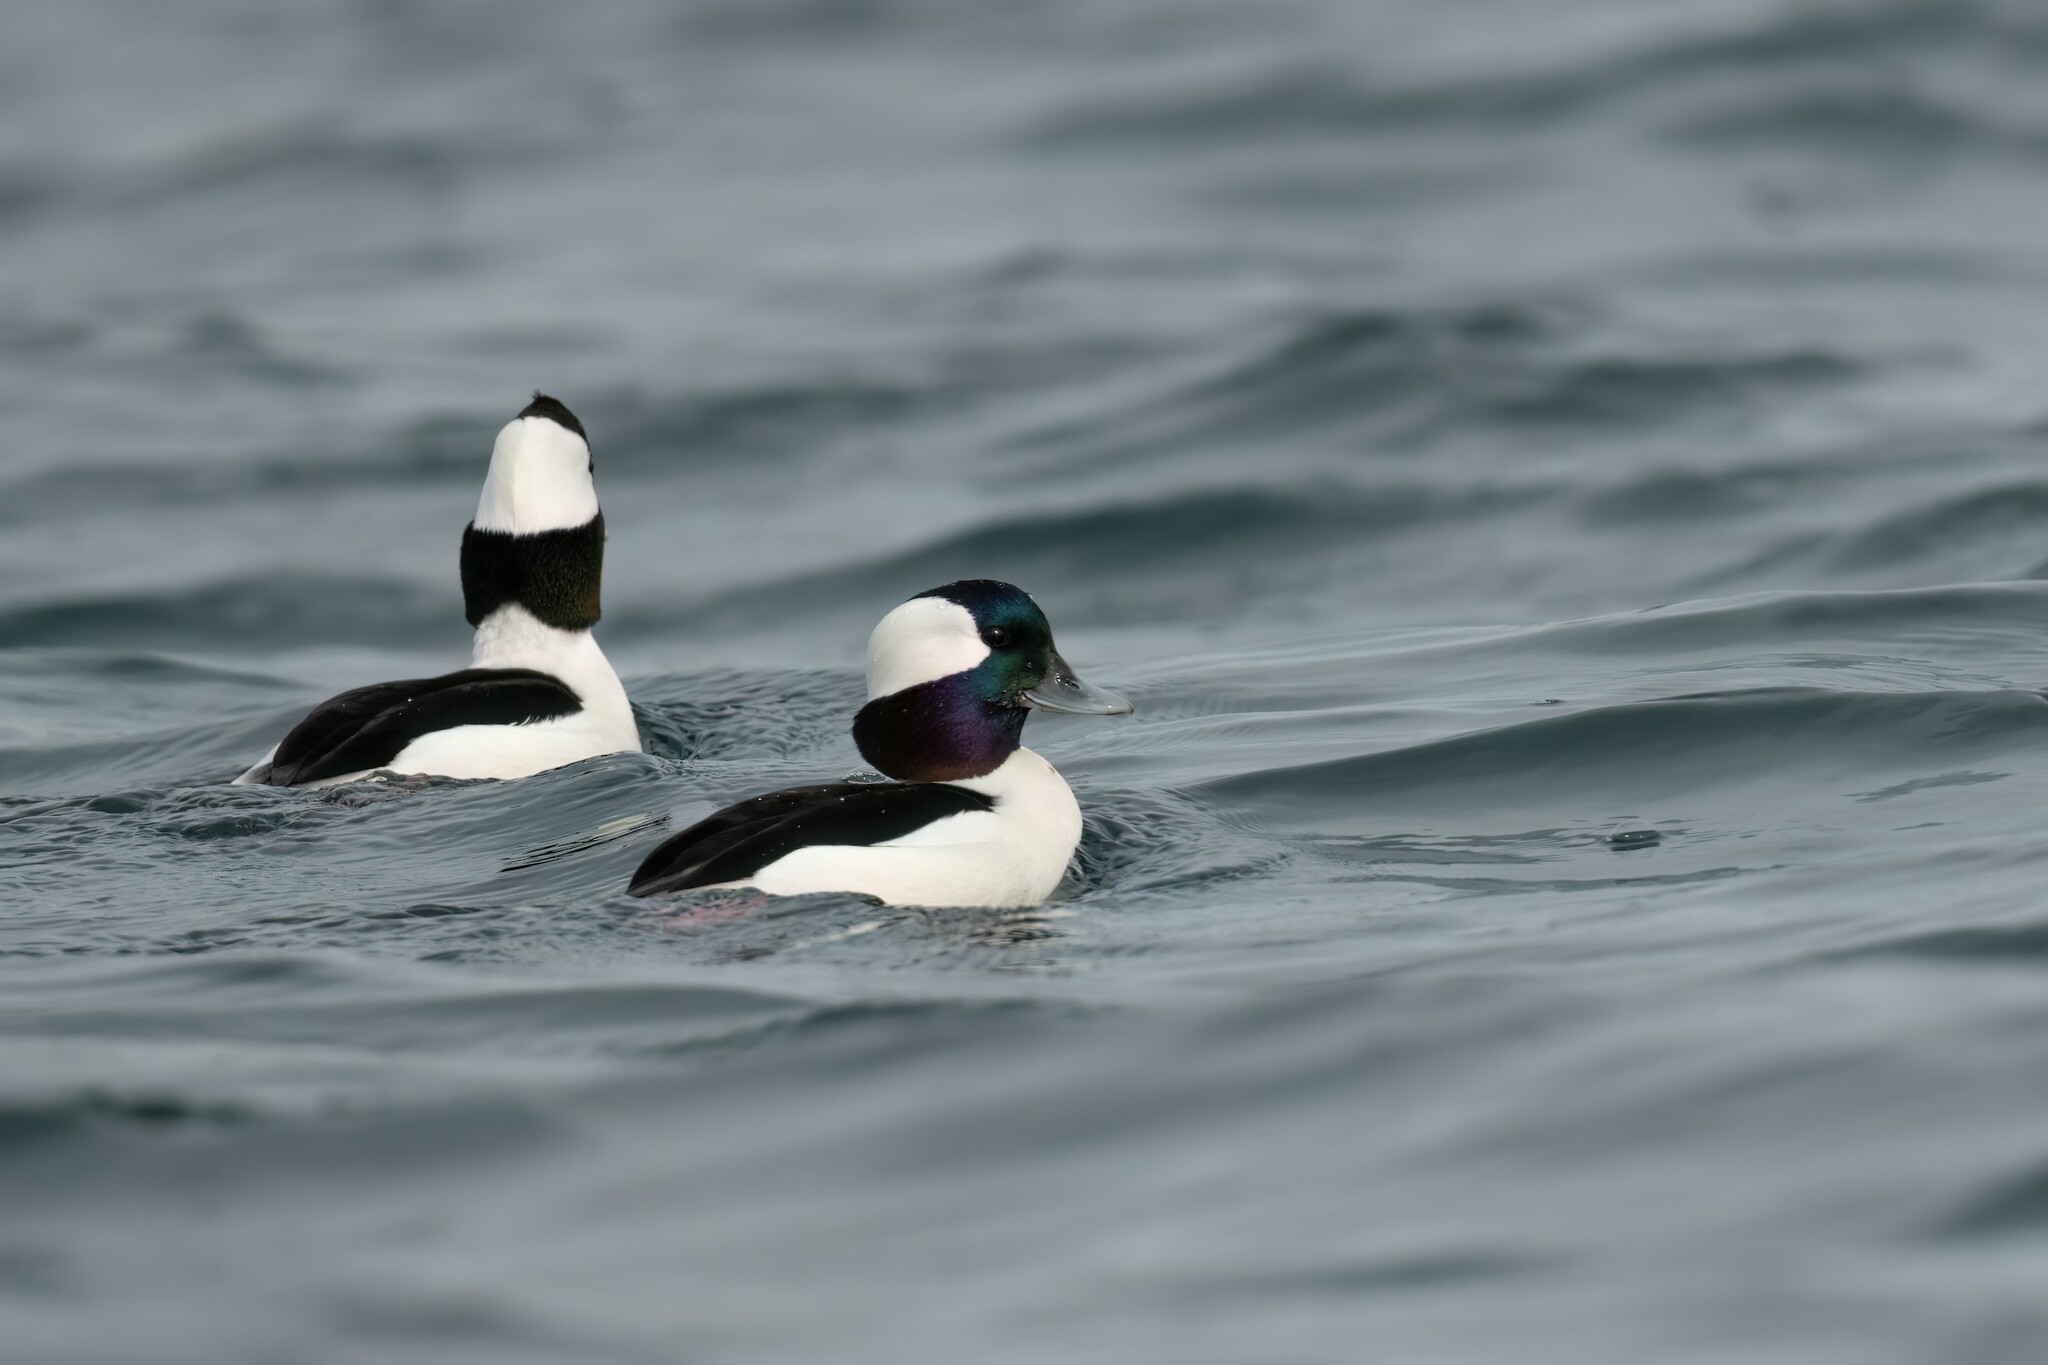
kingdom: Animalia
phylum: Chordata
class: Aves
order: Anseriformes
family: Anatidae
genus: Bucephala
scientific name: Bucephala albeola
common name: Bufflehead
